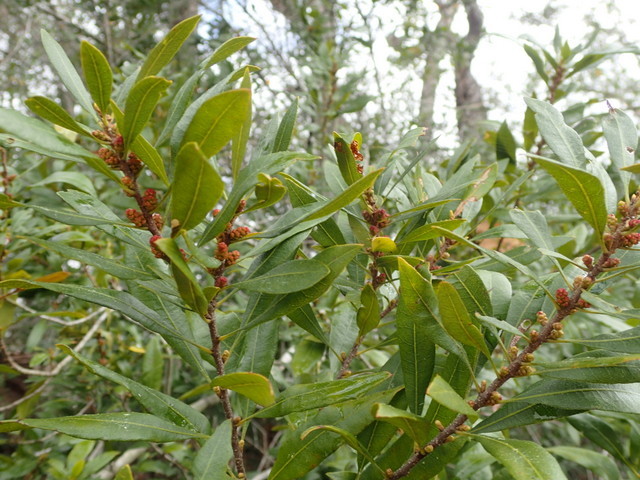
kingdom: Plantae
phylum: Tracheophyta
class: Magnoliopsida
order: Fagales
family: Myricaceae
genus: Morella
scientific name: Morella cerifera
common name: Wax myrtle
